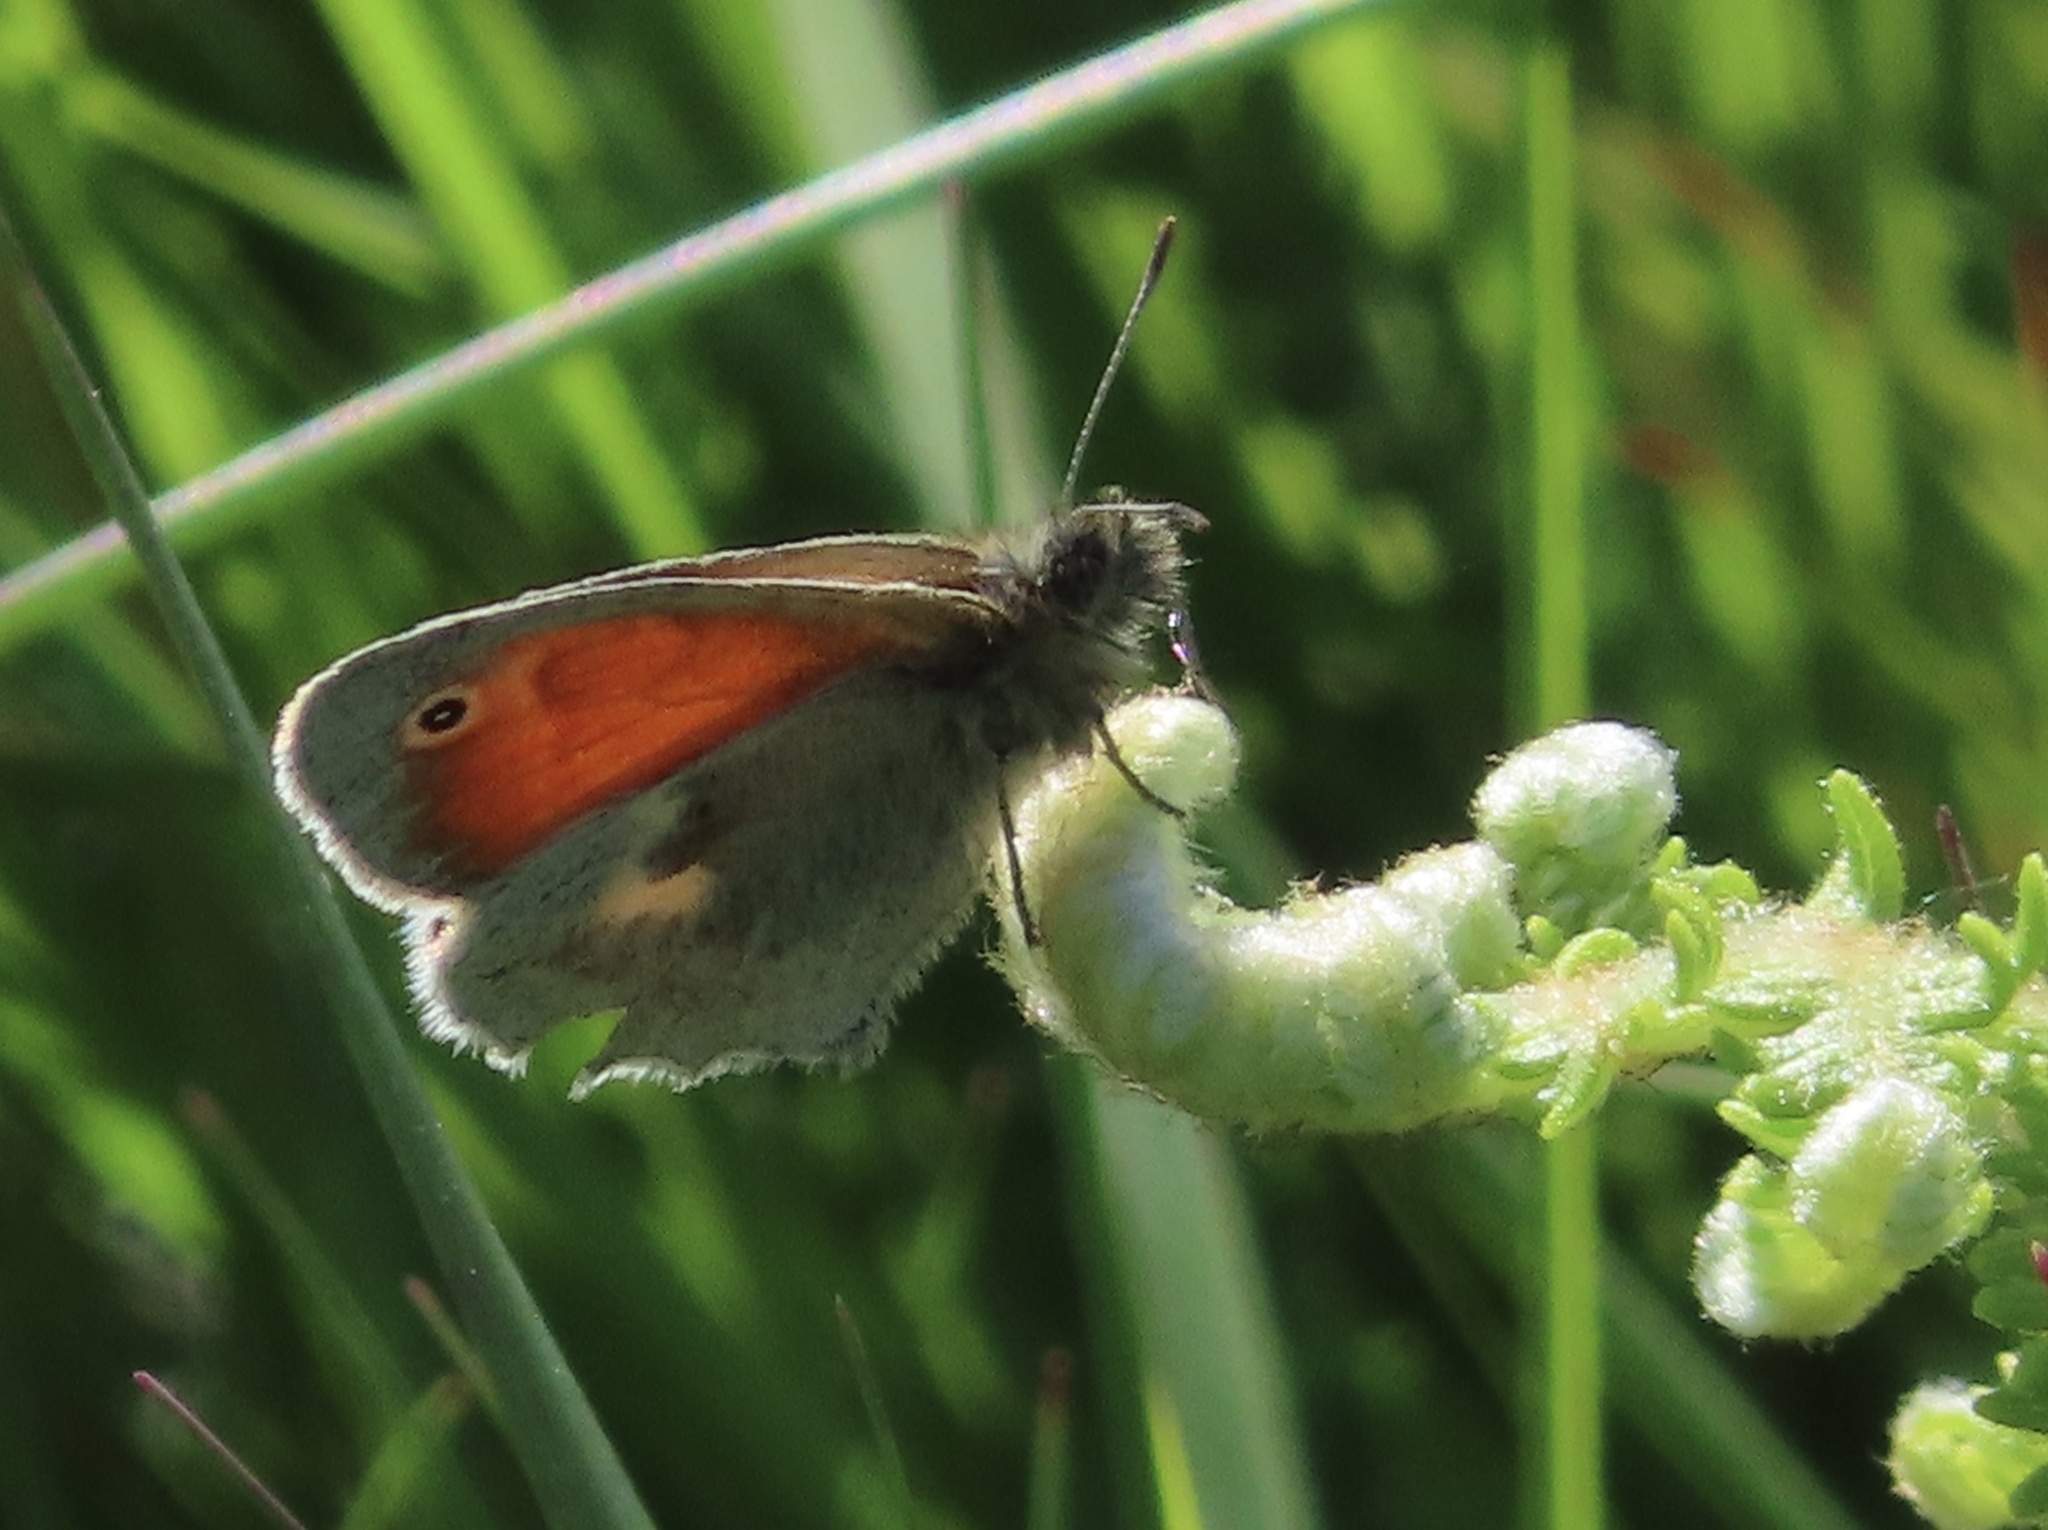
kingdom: Animalia
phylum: Arthropoda
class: Insecta
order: Lepidoptera
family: Nymphalidae
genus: Coenonympha
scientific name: Coenonympha pamphilus
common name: Small heath
